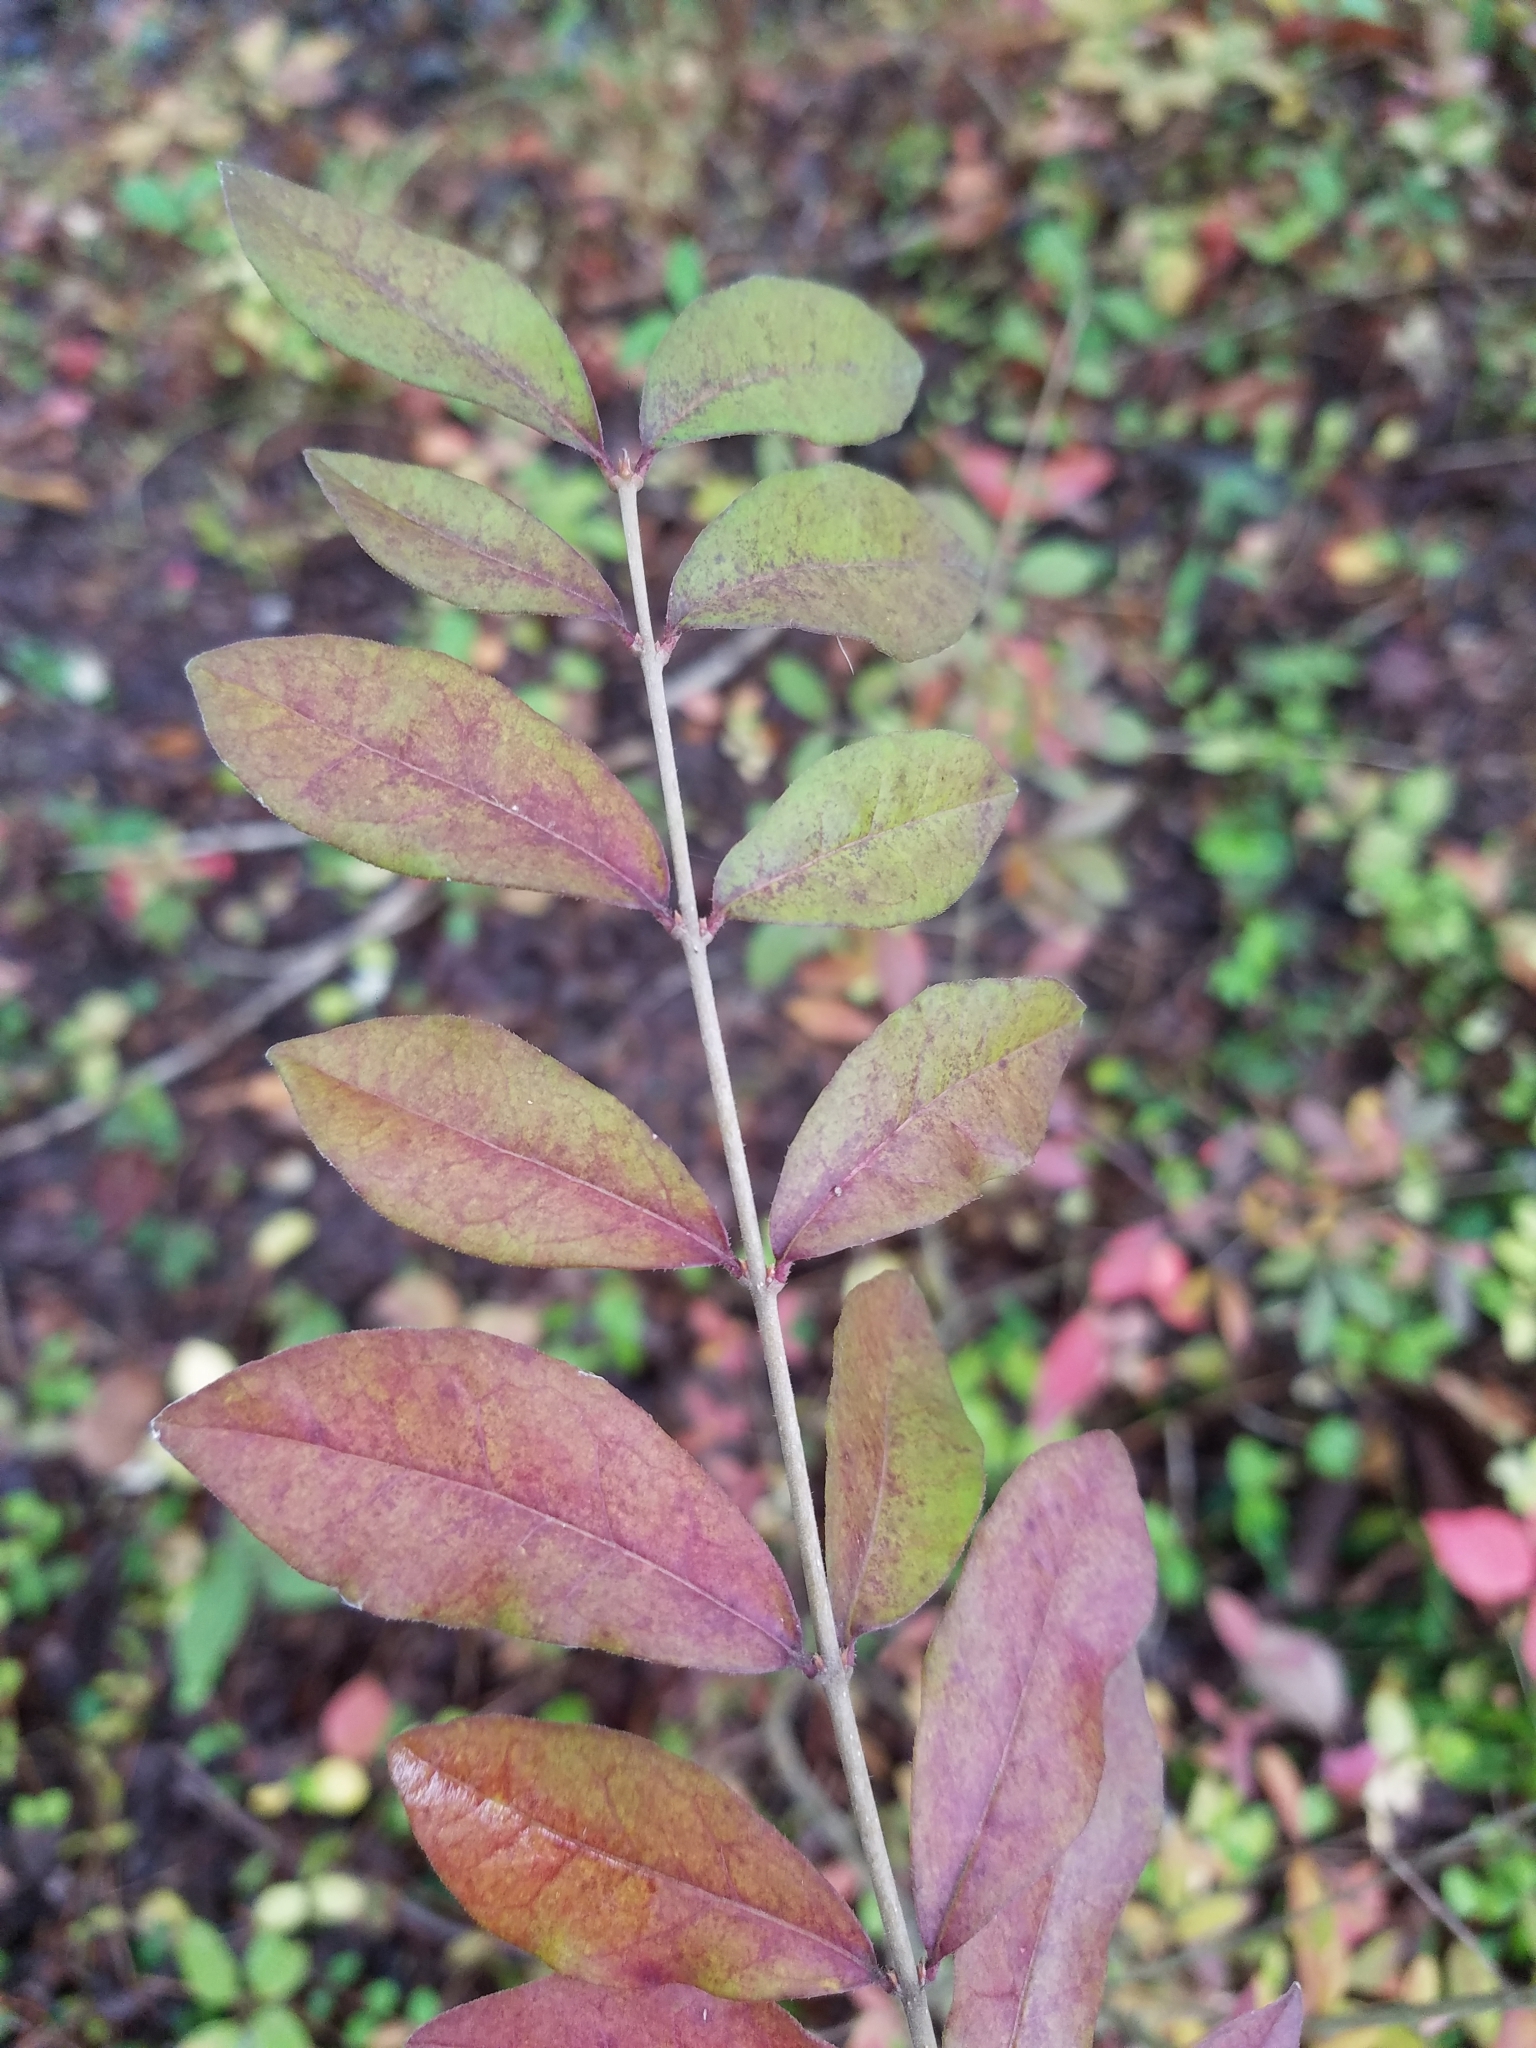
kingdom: Plantae
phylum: Tracheophyta
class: Magnoliopsida
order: Lamiales
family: Oleaceae
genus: Ligustrum
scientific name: Ligustrum obtusifolium
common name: Border privet
